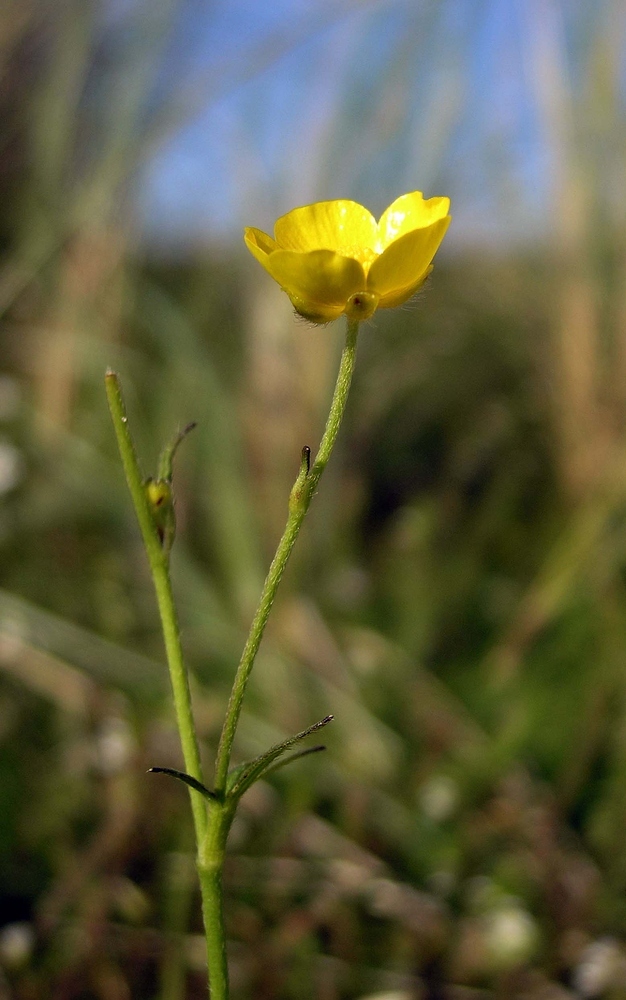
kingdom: Plantae
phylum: Tracheophyta
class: Magnoliopsida
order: Ranunculales
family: Ranunculaceae
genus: Ranunculus
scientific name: Ranunculus acris
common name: Meadow buttercup
